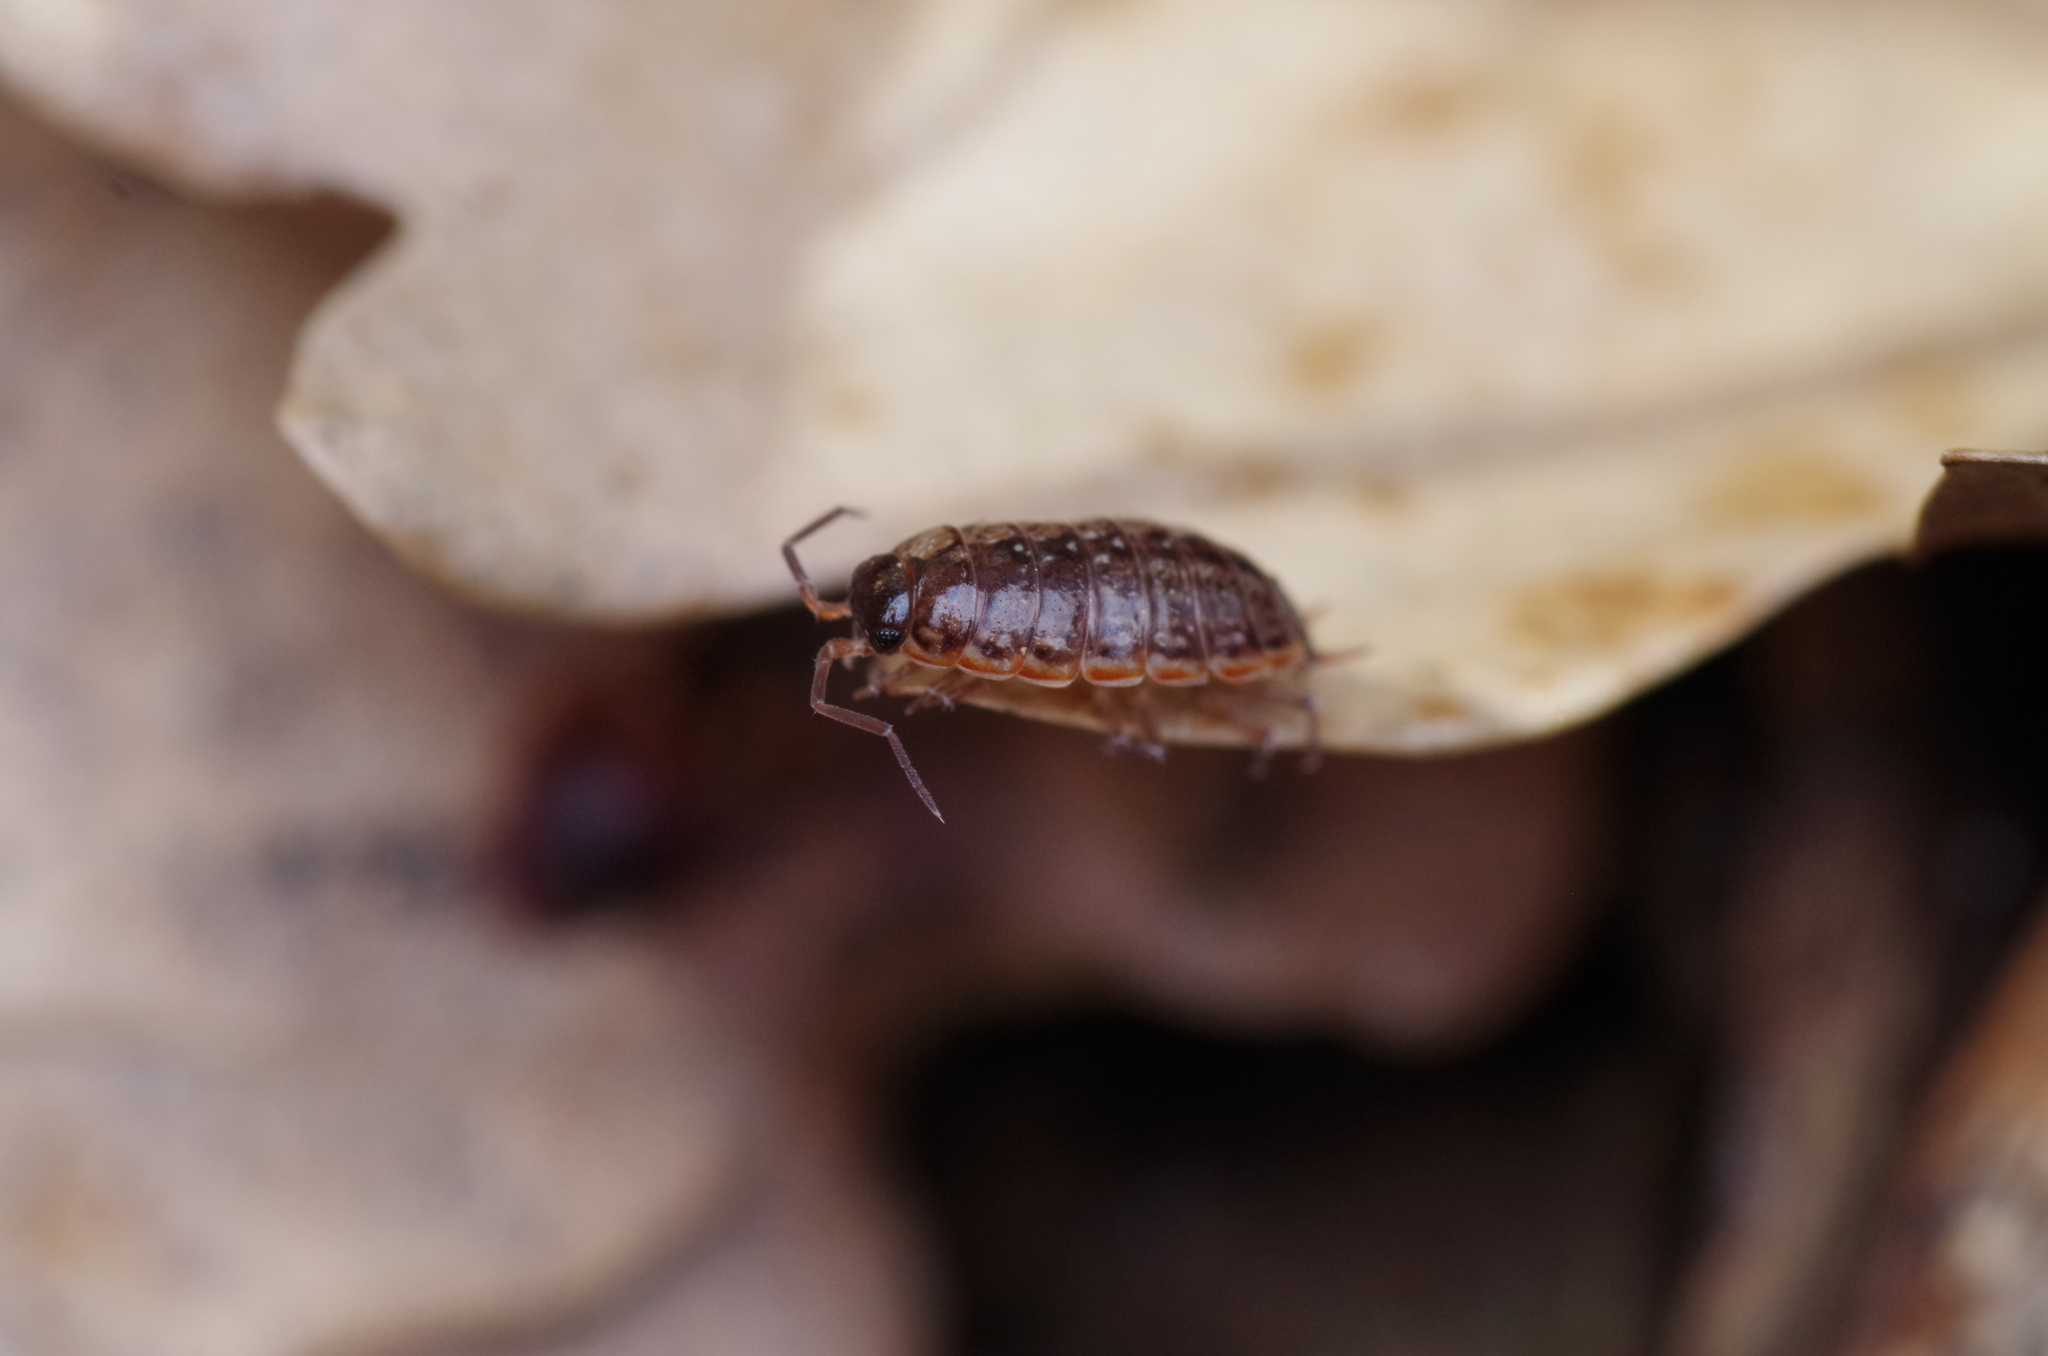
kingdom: Animalia
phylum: Arthropoda
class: Malacostraca
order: Isopoda
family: Philosciidae
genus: Philoscia
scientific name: Philoscia muscorum
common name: Common striped woodlouse
